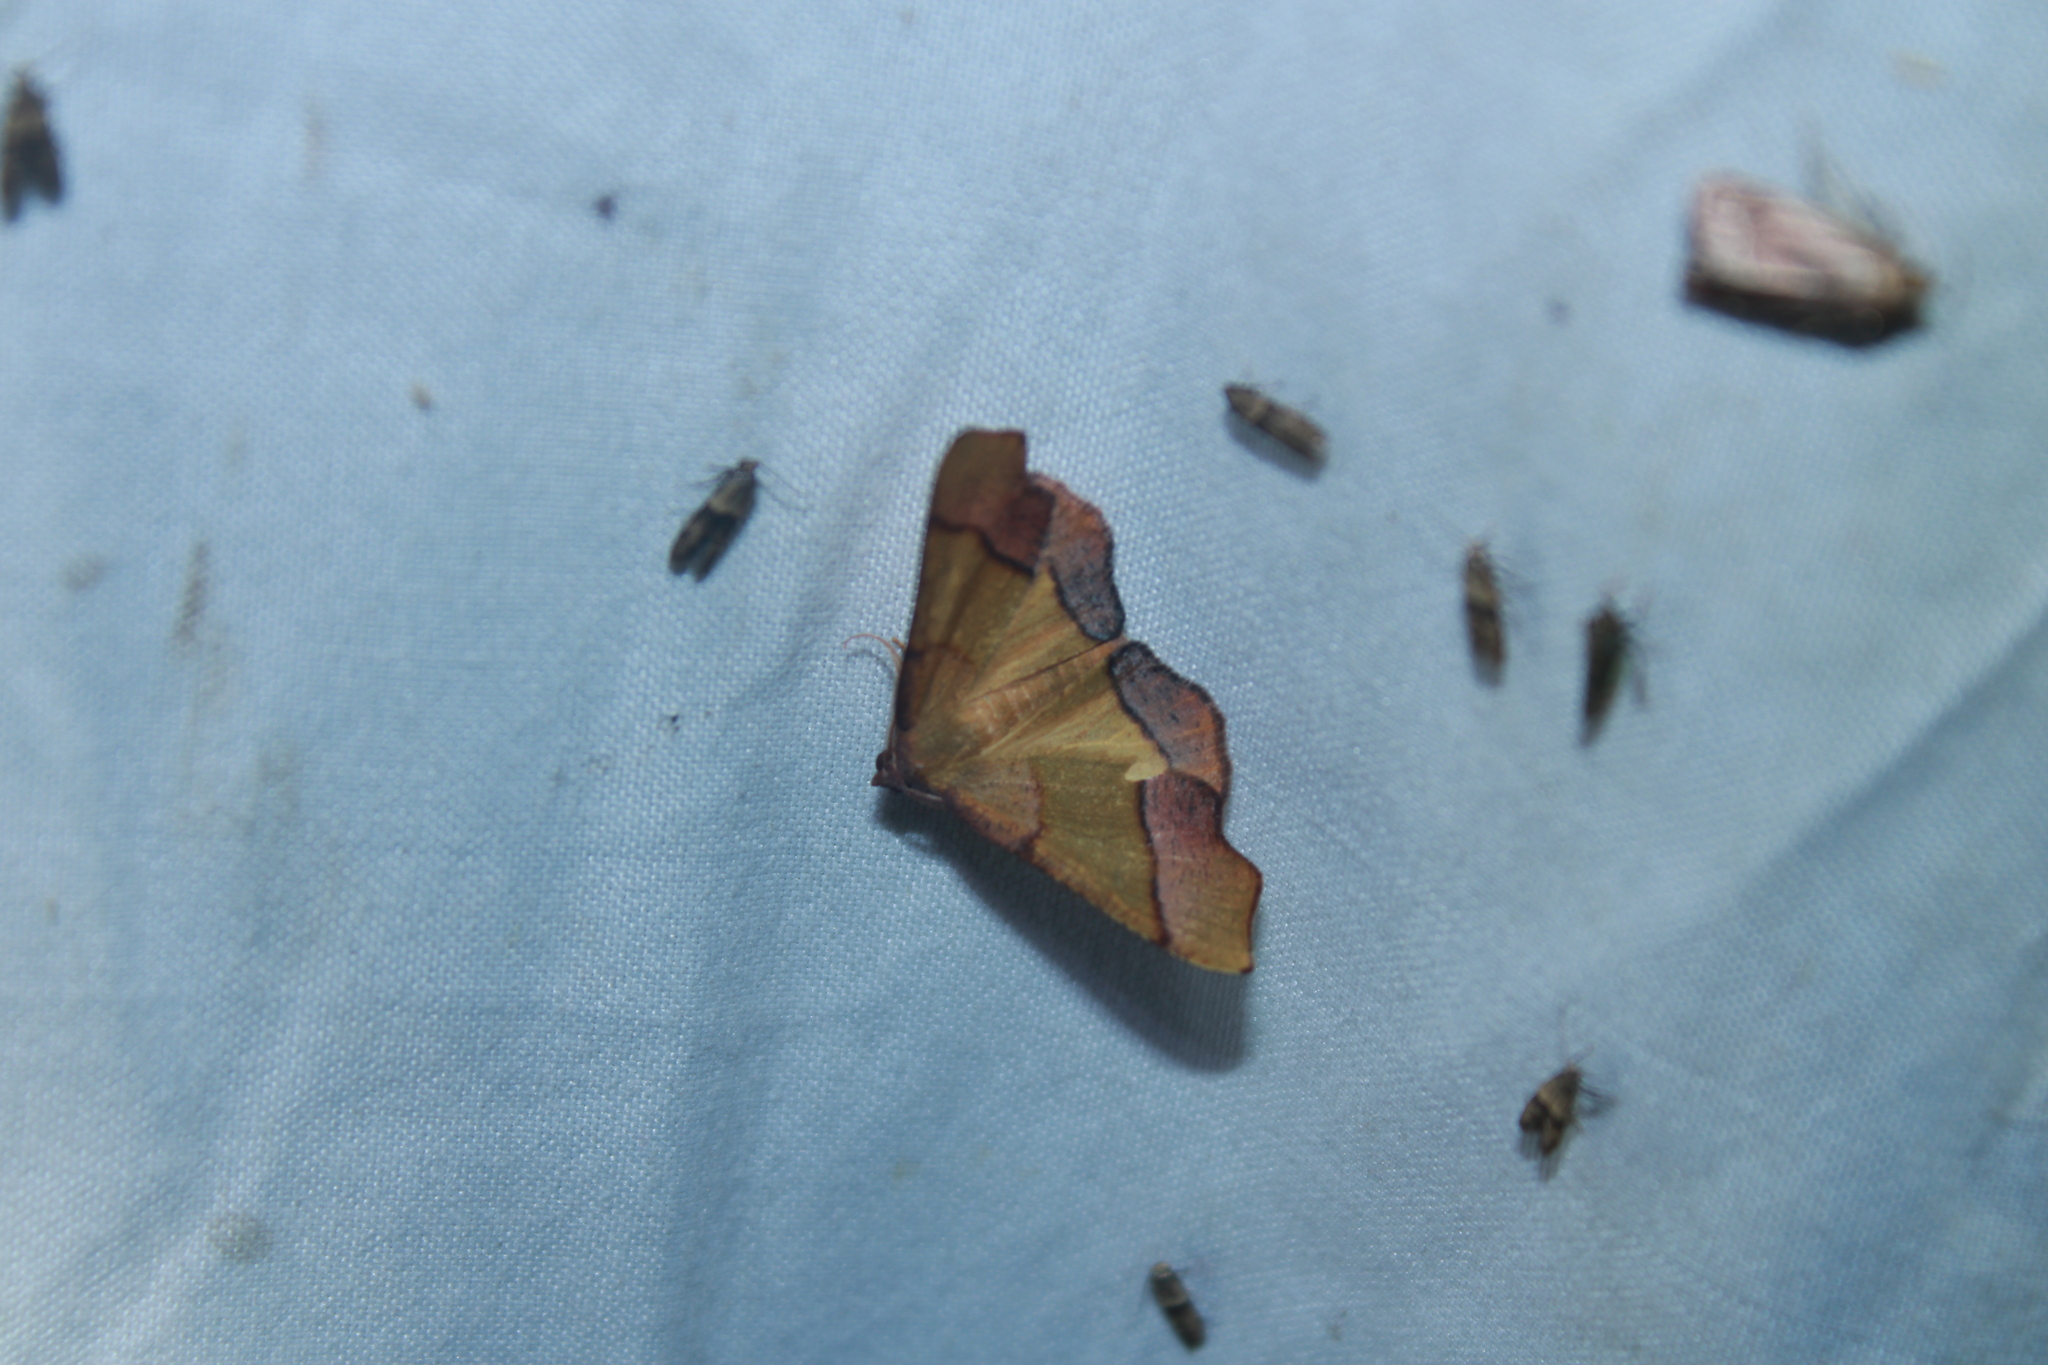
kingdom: Animalia
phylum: Arthropoda
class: Insecta
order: Lepidoptera
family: Geometridae
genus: Plagodis
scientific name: Plagodis phlogosaria
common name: Straight-lined plagodis
